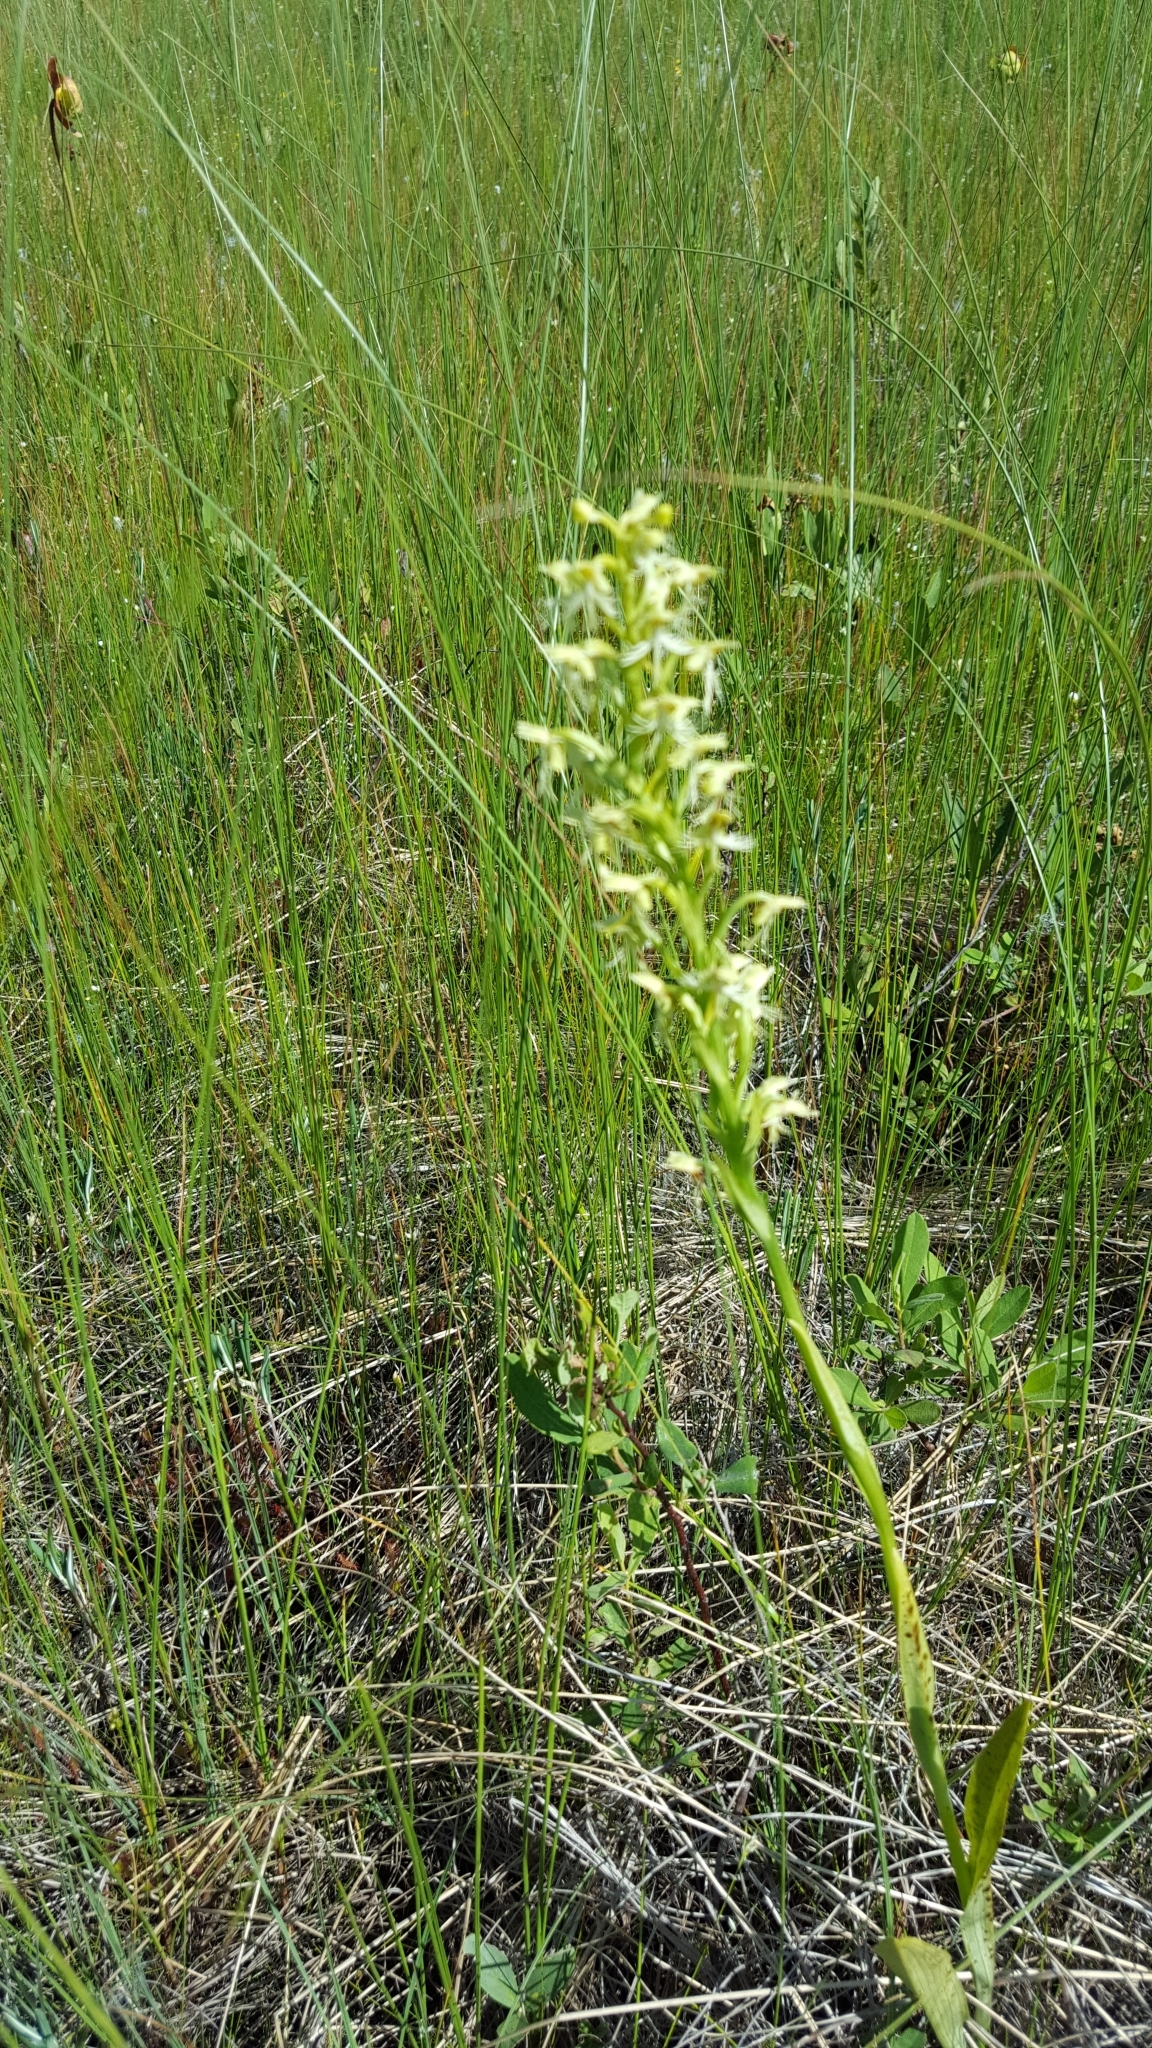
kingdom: Plantae
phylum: Tracheophyta
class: Liliopsida
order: Asparagales
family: Orchidaceae
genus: Platanthera
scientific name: Platanthera lacera
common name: Green fringed orchid
